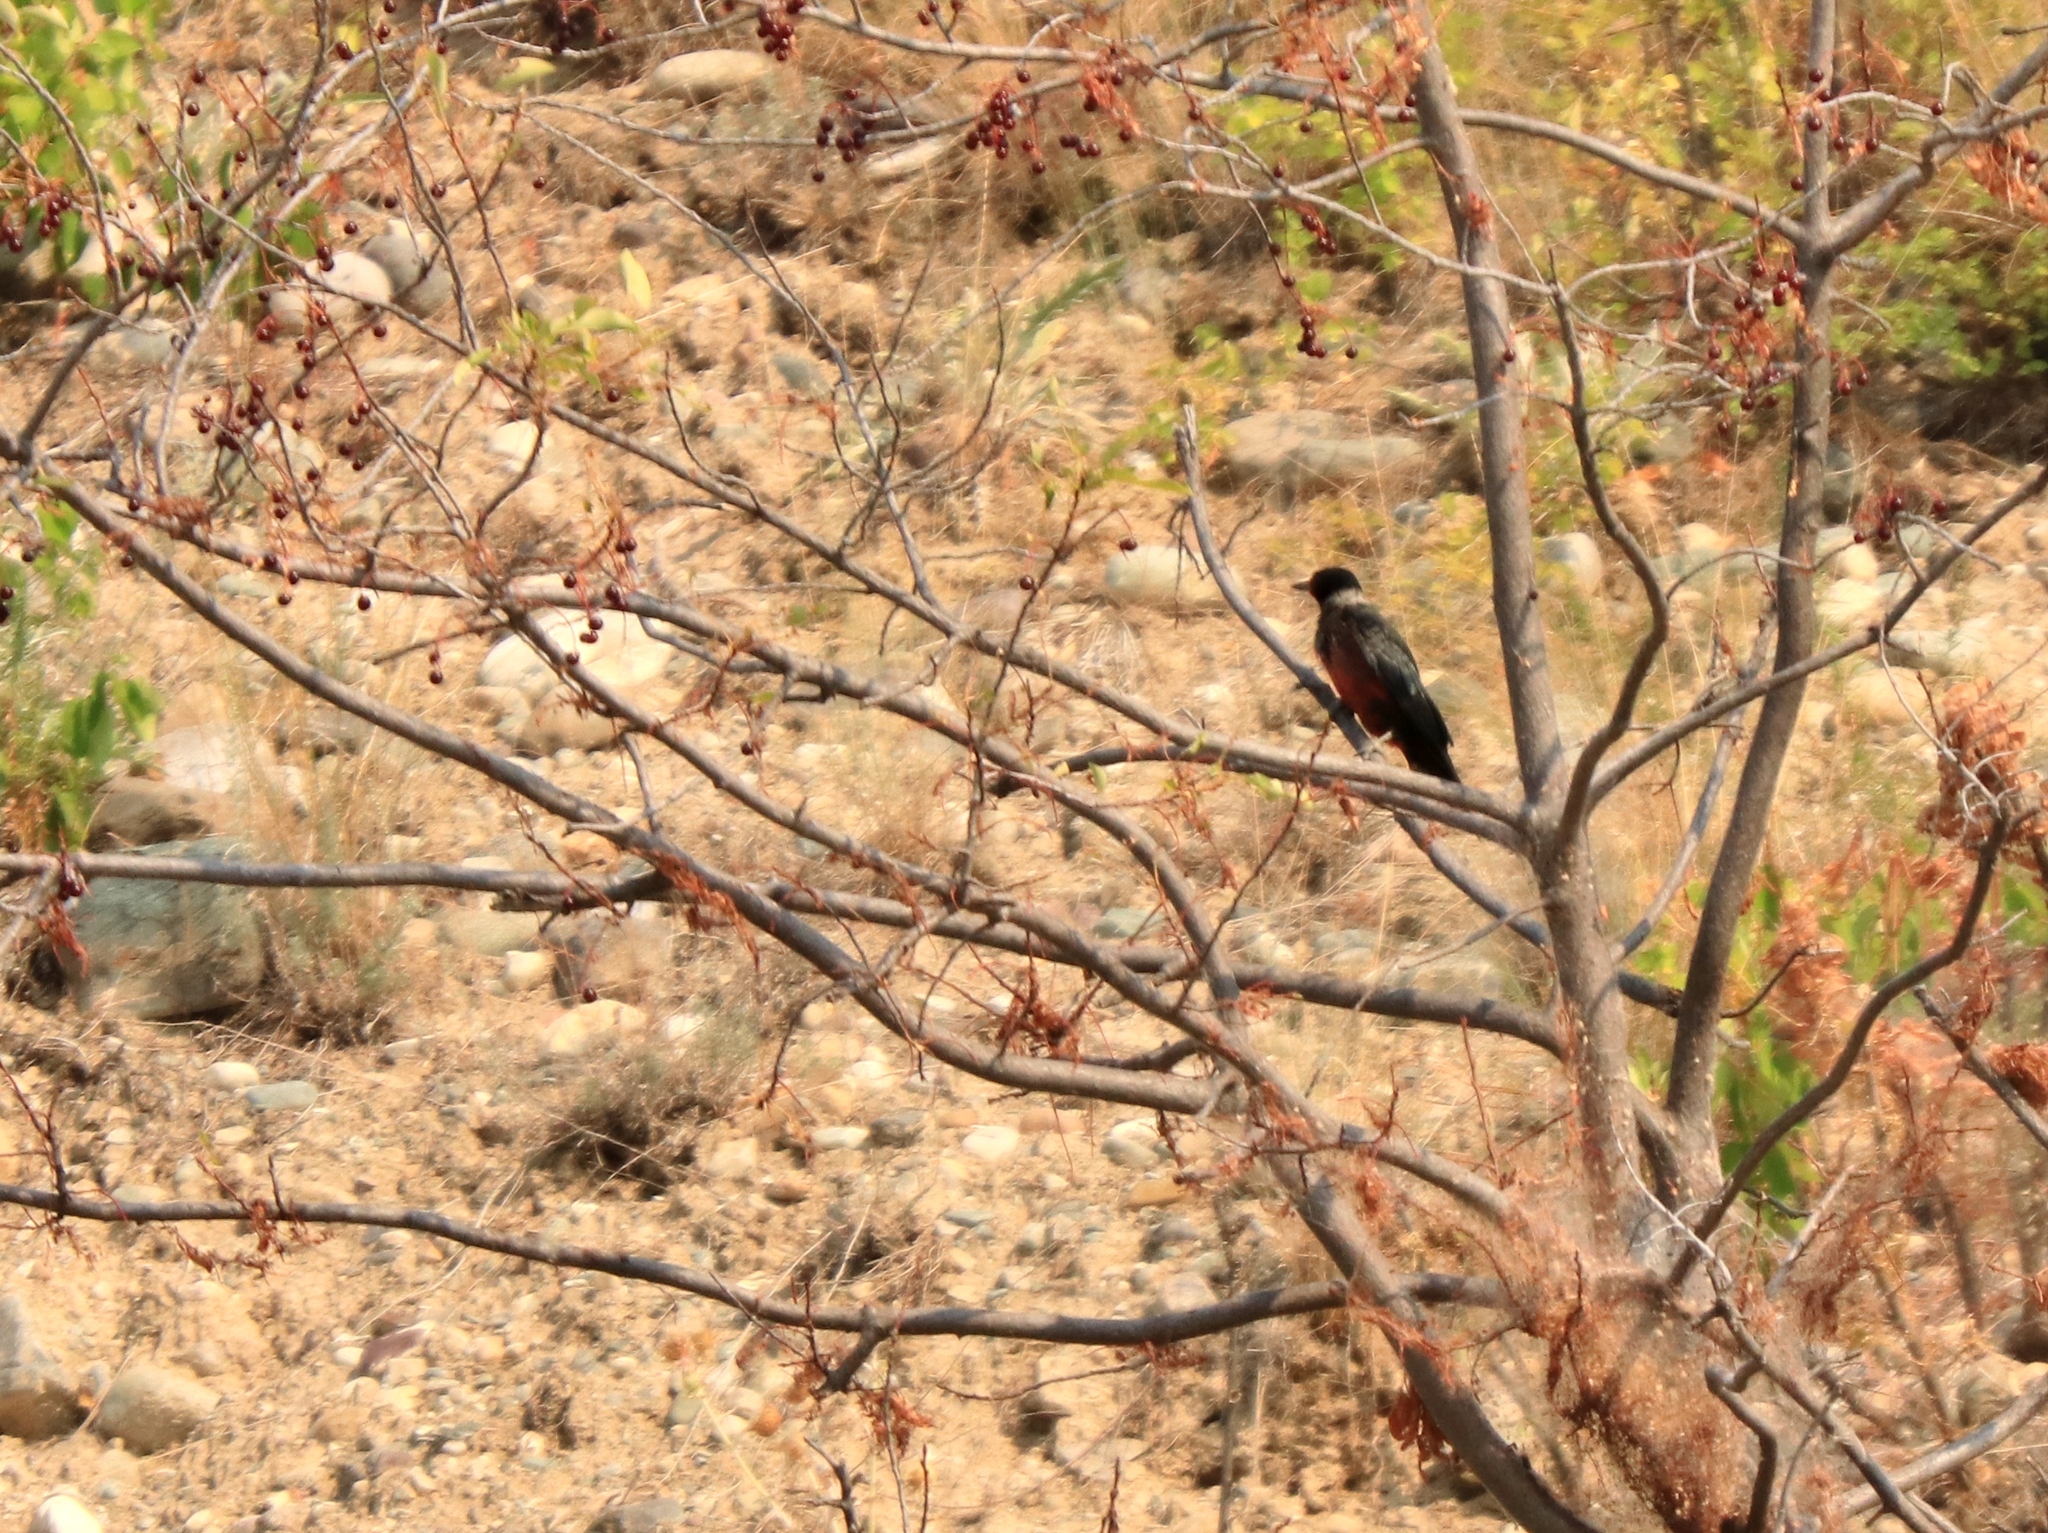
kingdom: Animalia
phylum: Chordata
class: Aves
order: Piciformes
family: Picidae
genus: Melanerpes
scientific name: Melanerpes lewis
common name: Lewis's woodpecker
